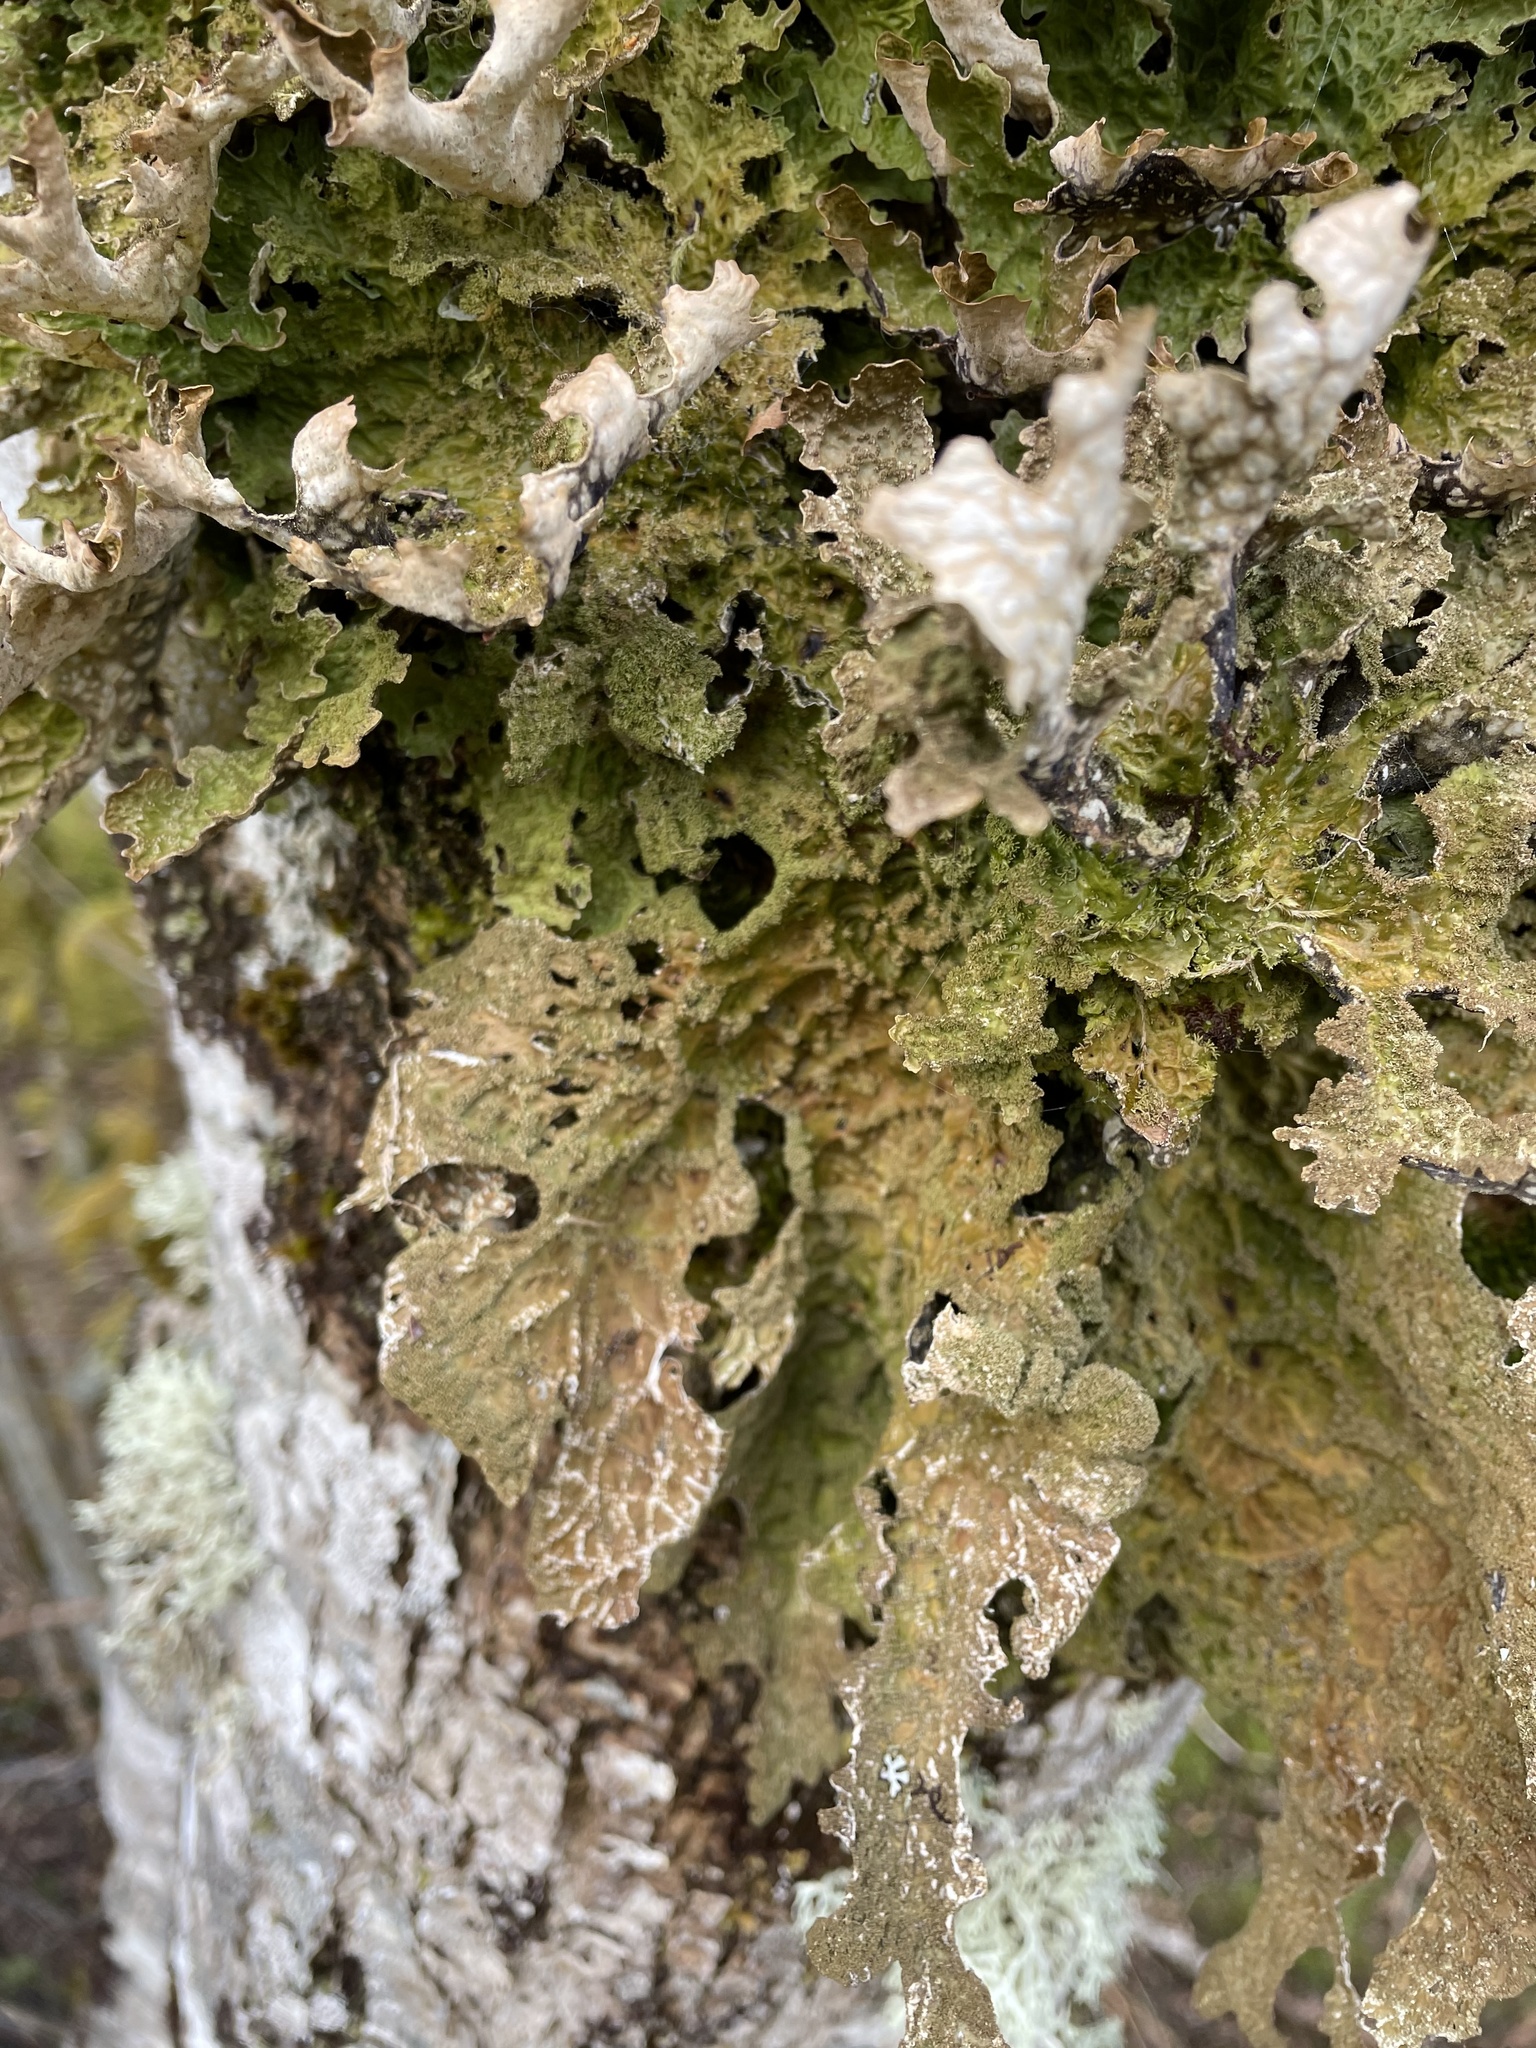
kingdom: Fungi
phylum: Ascomycota
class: Lecanoromycetes
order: Peltigerales
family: Lobariaceae
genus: Lobaria
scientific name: Lobaria pulmonaria
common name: Lungwort
